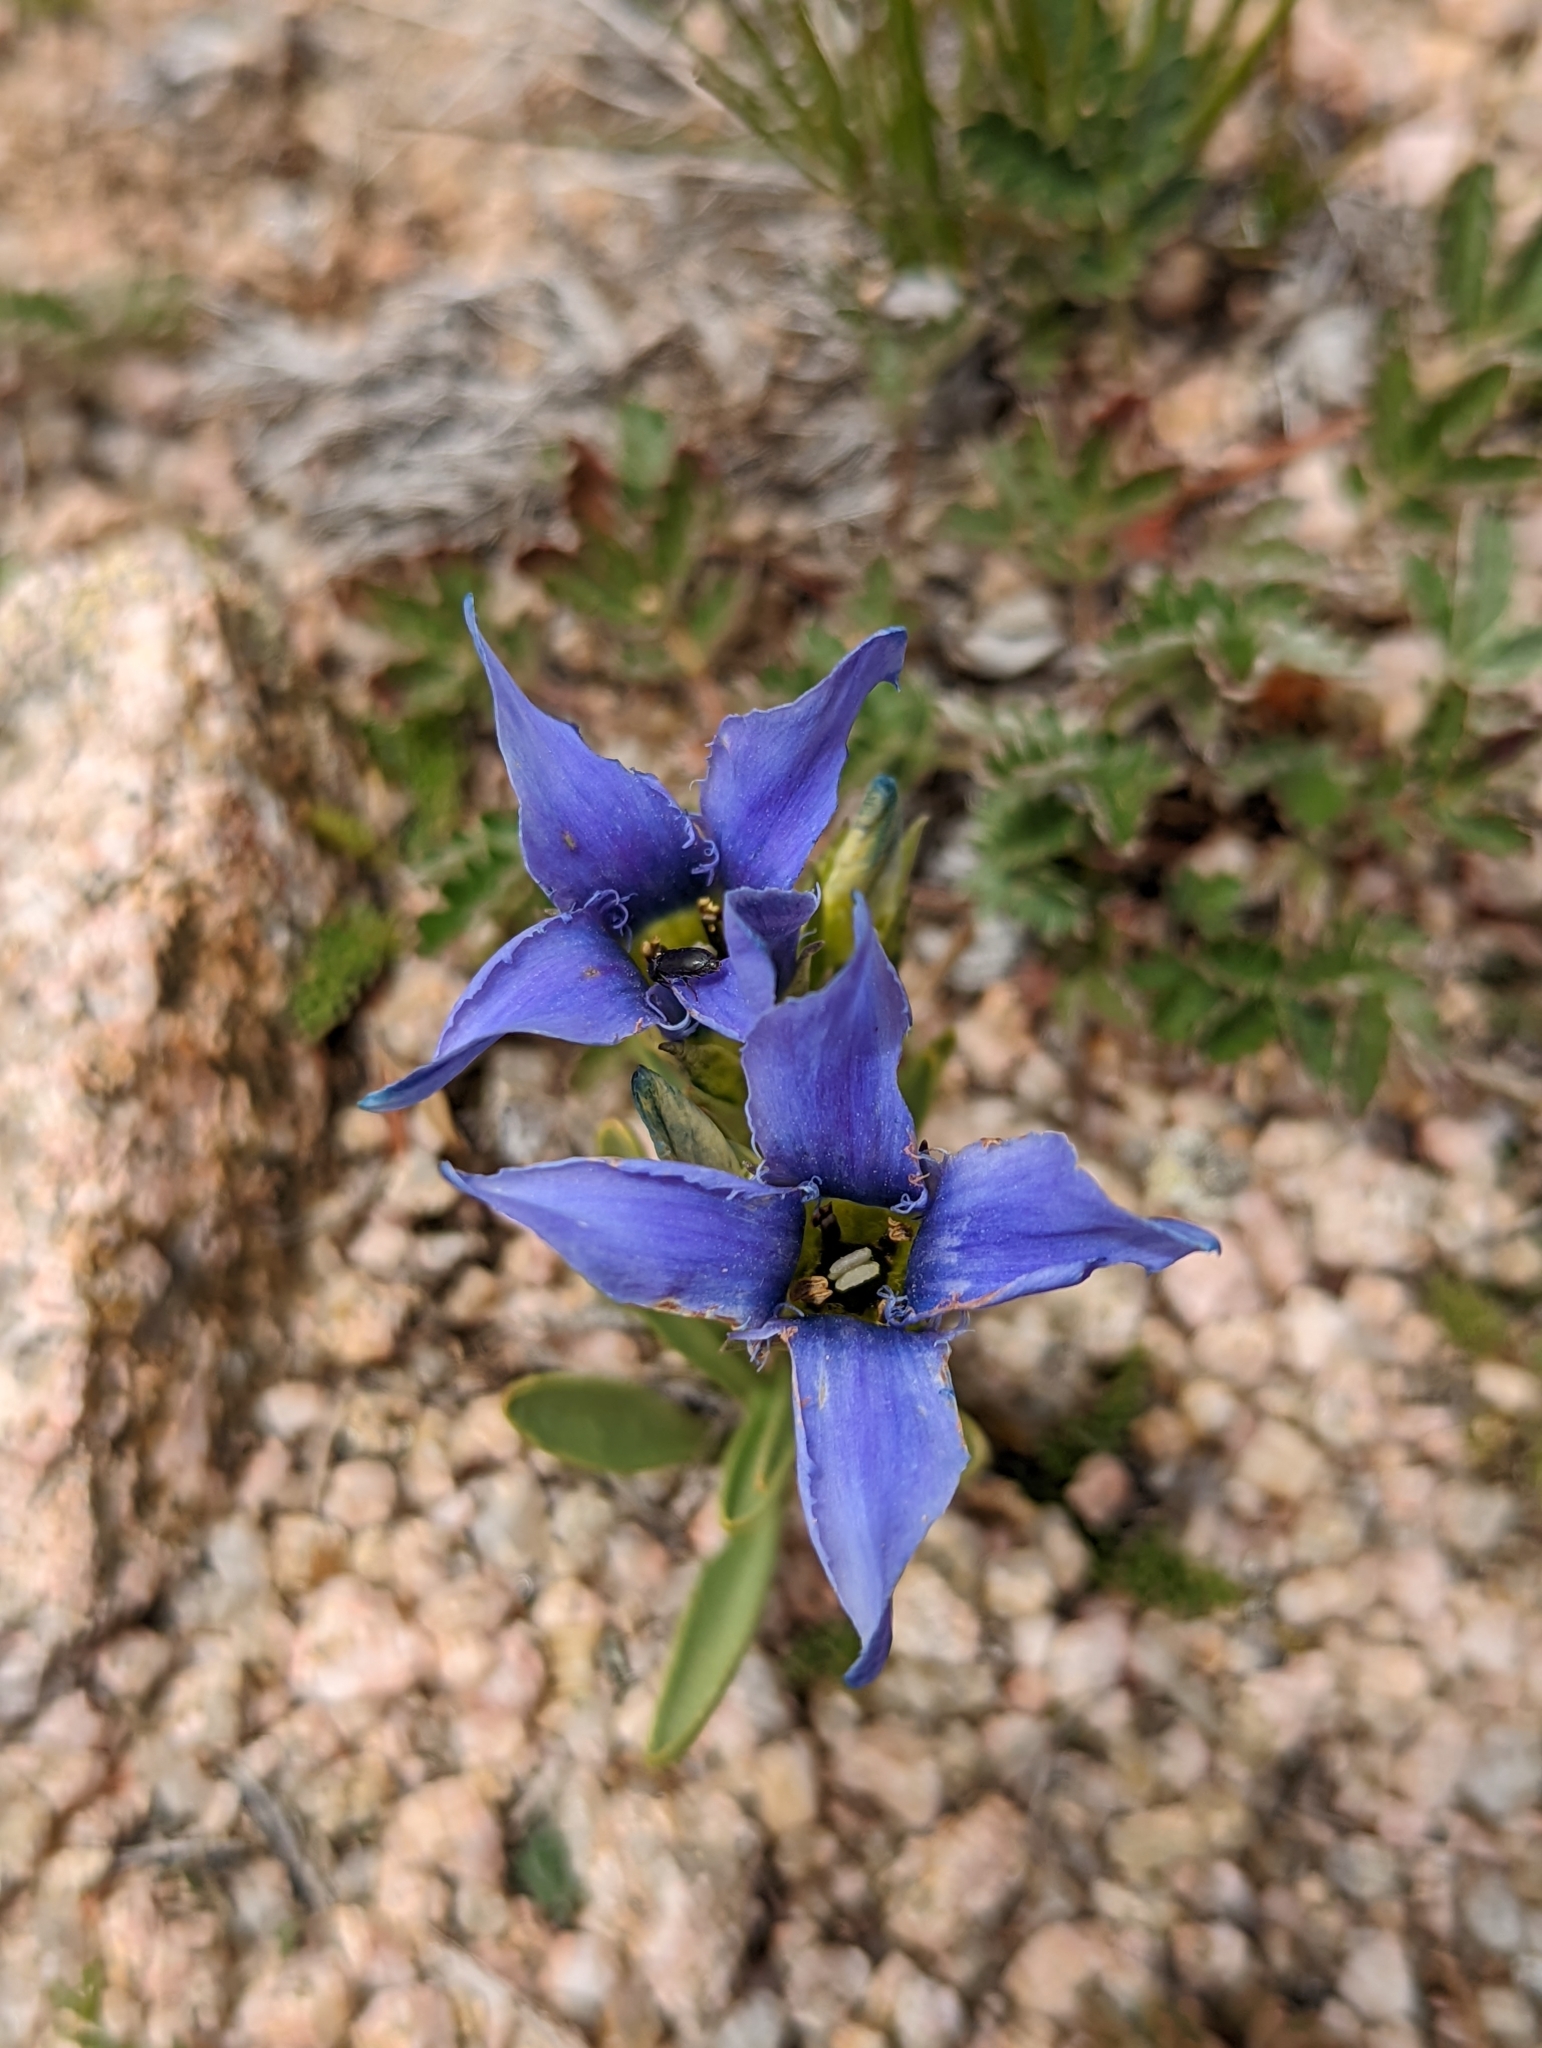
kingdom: Plantae
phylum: Tracheophyta
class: Magnoliopsida
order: Gentianales
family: Gentianaceae
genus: Gentianopsis
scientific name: Gentianopsis barbellata
